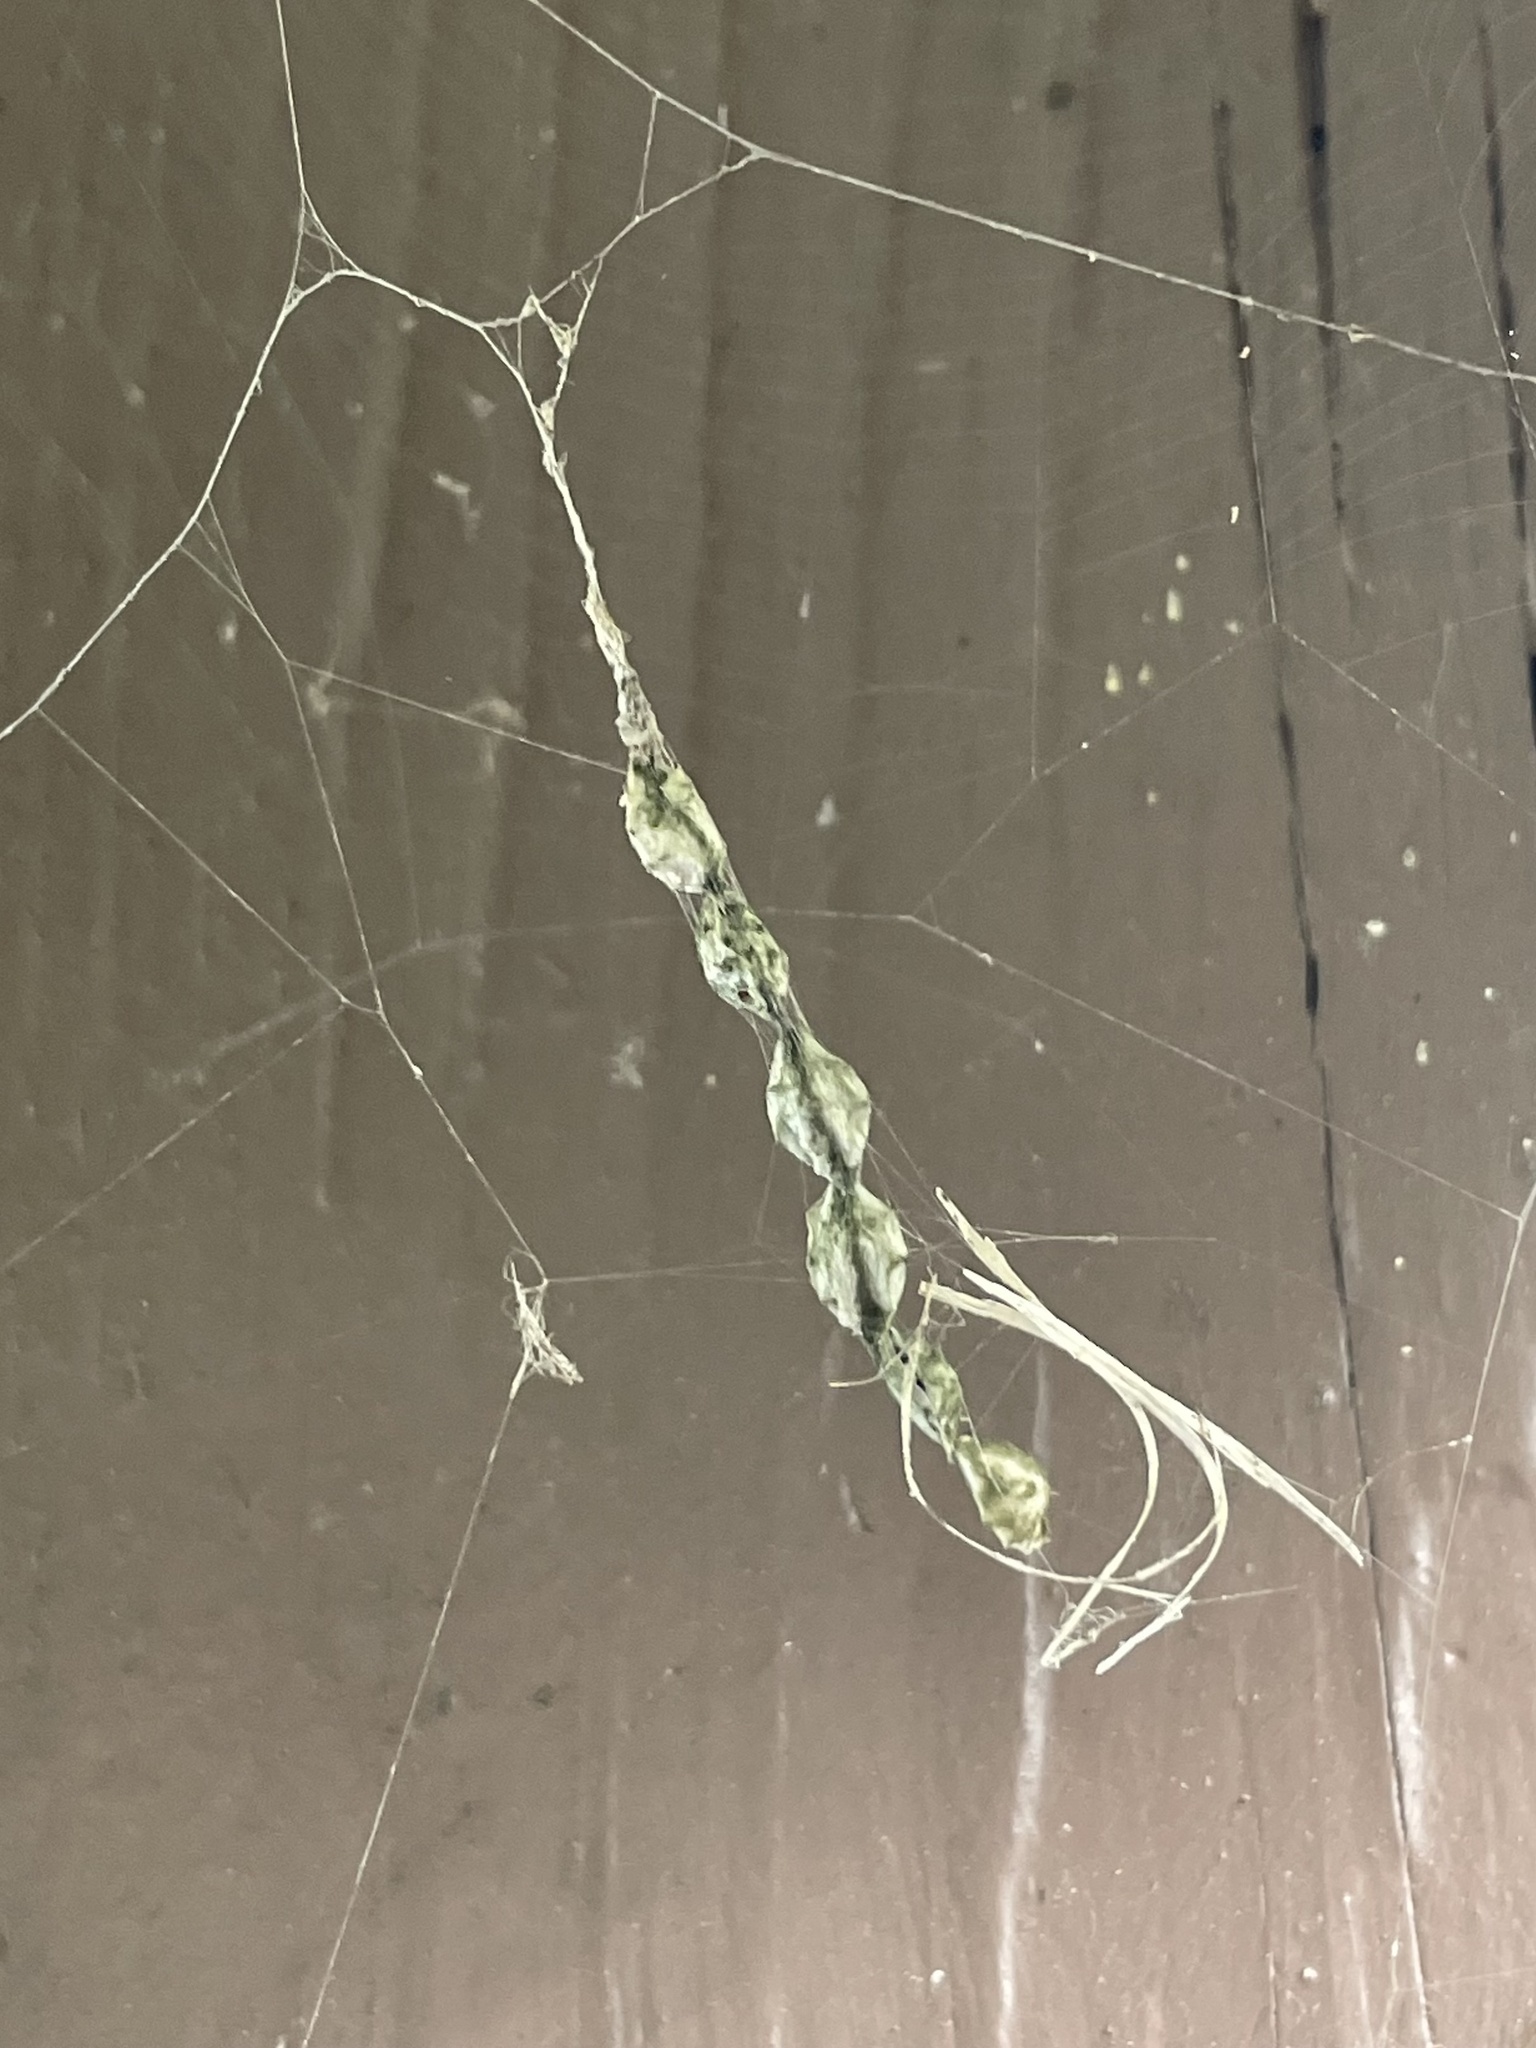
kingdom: Animalia
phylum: Arthropoda
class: Arachnida
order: Araneae
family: Araneidae
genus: Allocyclosa
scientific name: Allocyclosa bifurca
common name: Orb weavers
